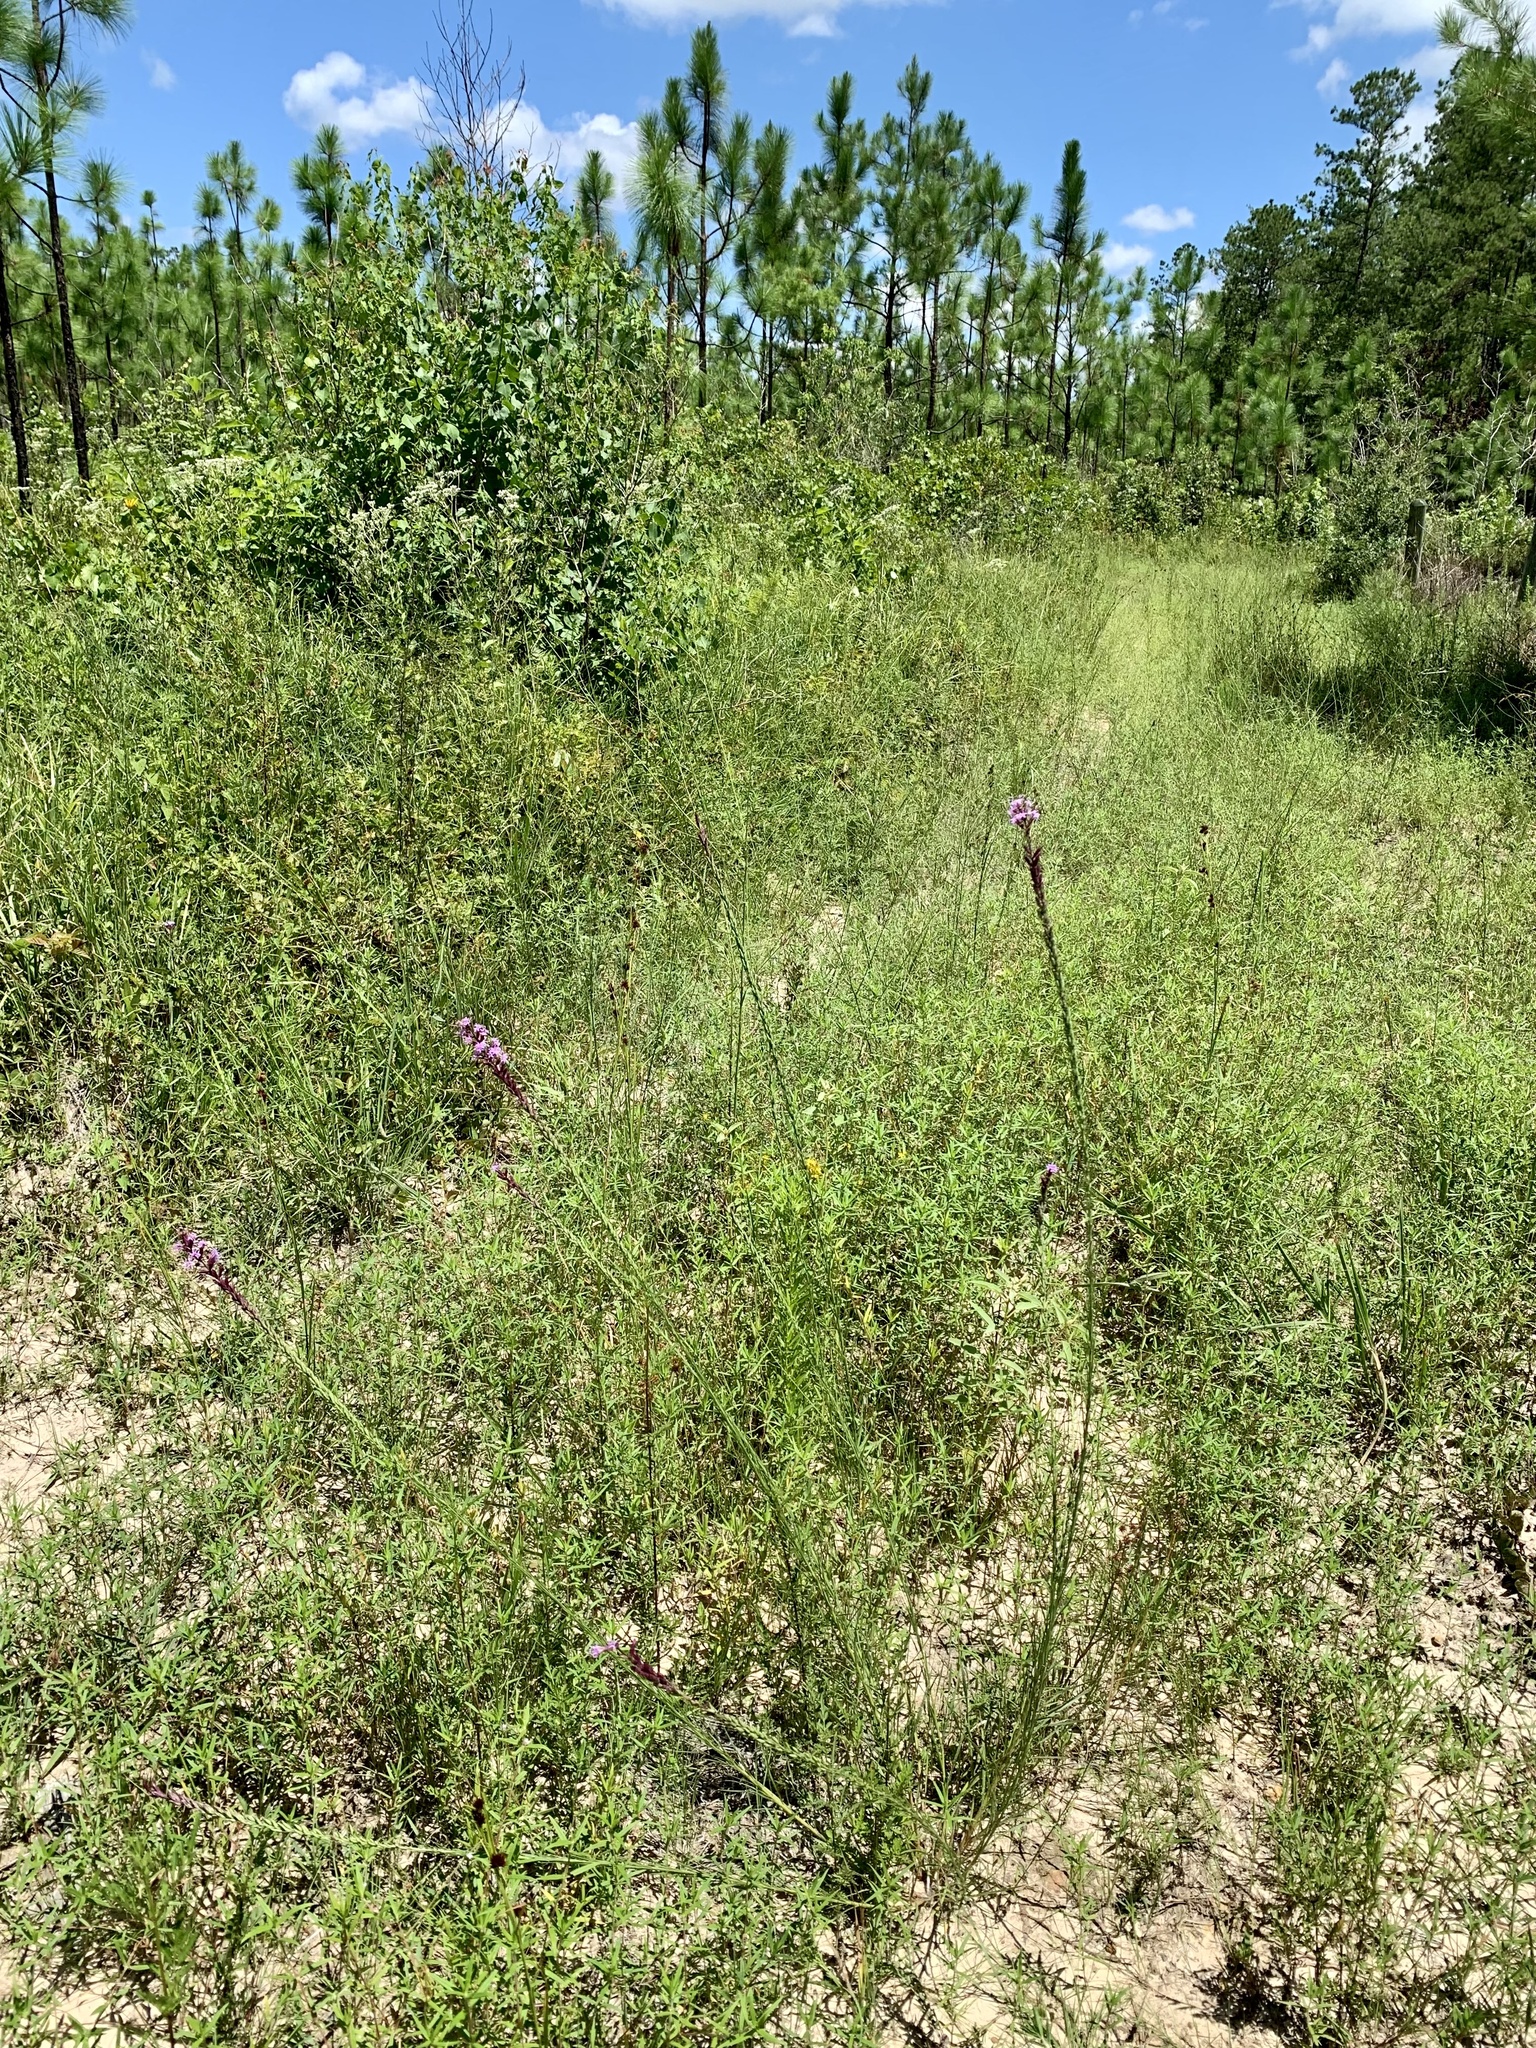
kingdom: Plantae
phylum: Tracheophyta
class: Magnoliopsida
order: Asterales
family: Asteraceae
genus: Liatris
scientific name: Liatris acidota
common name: Gulf coast gayfeather
